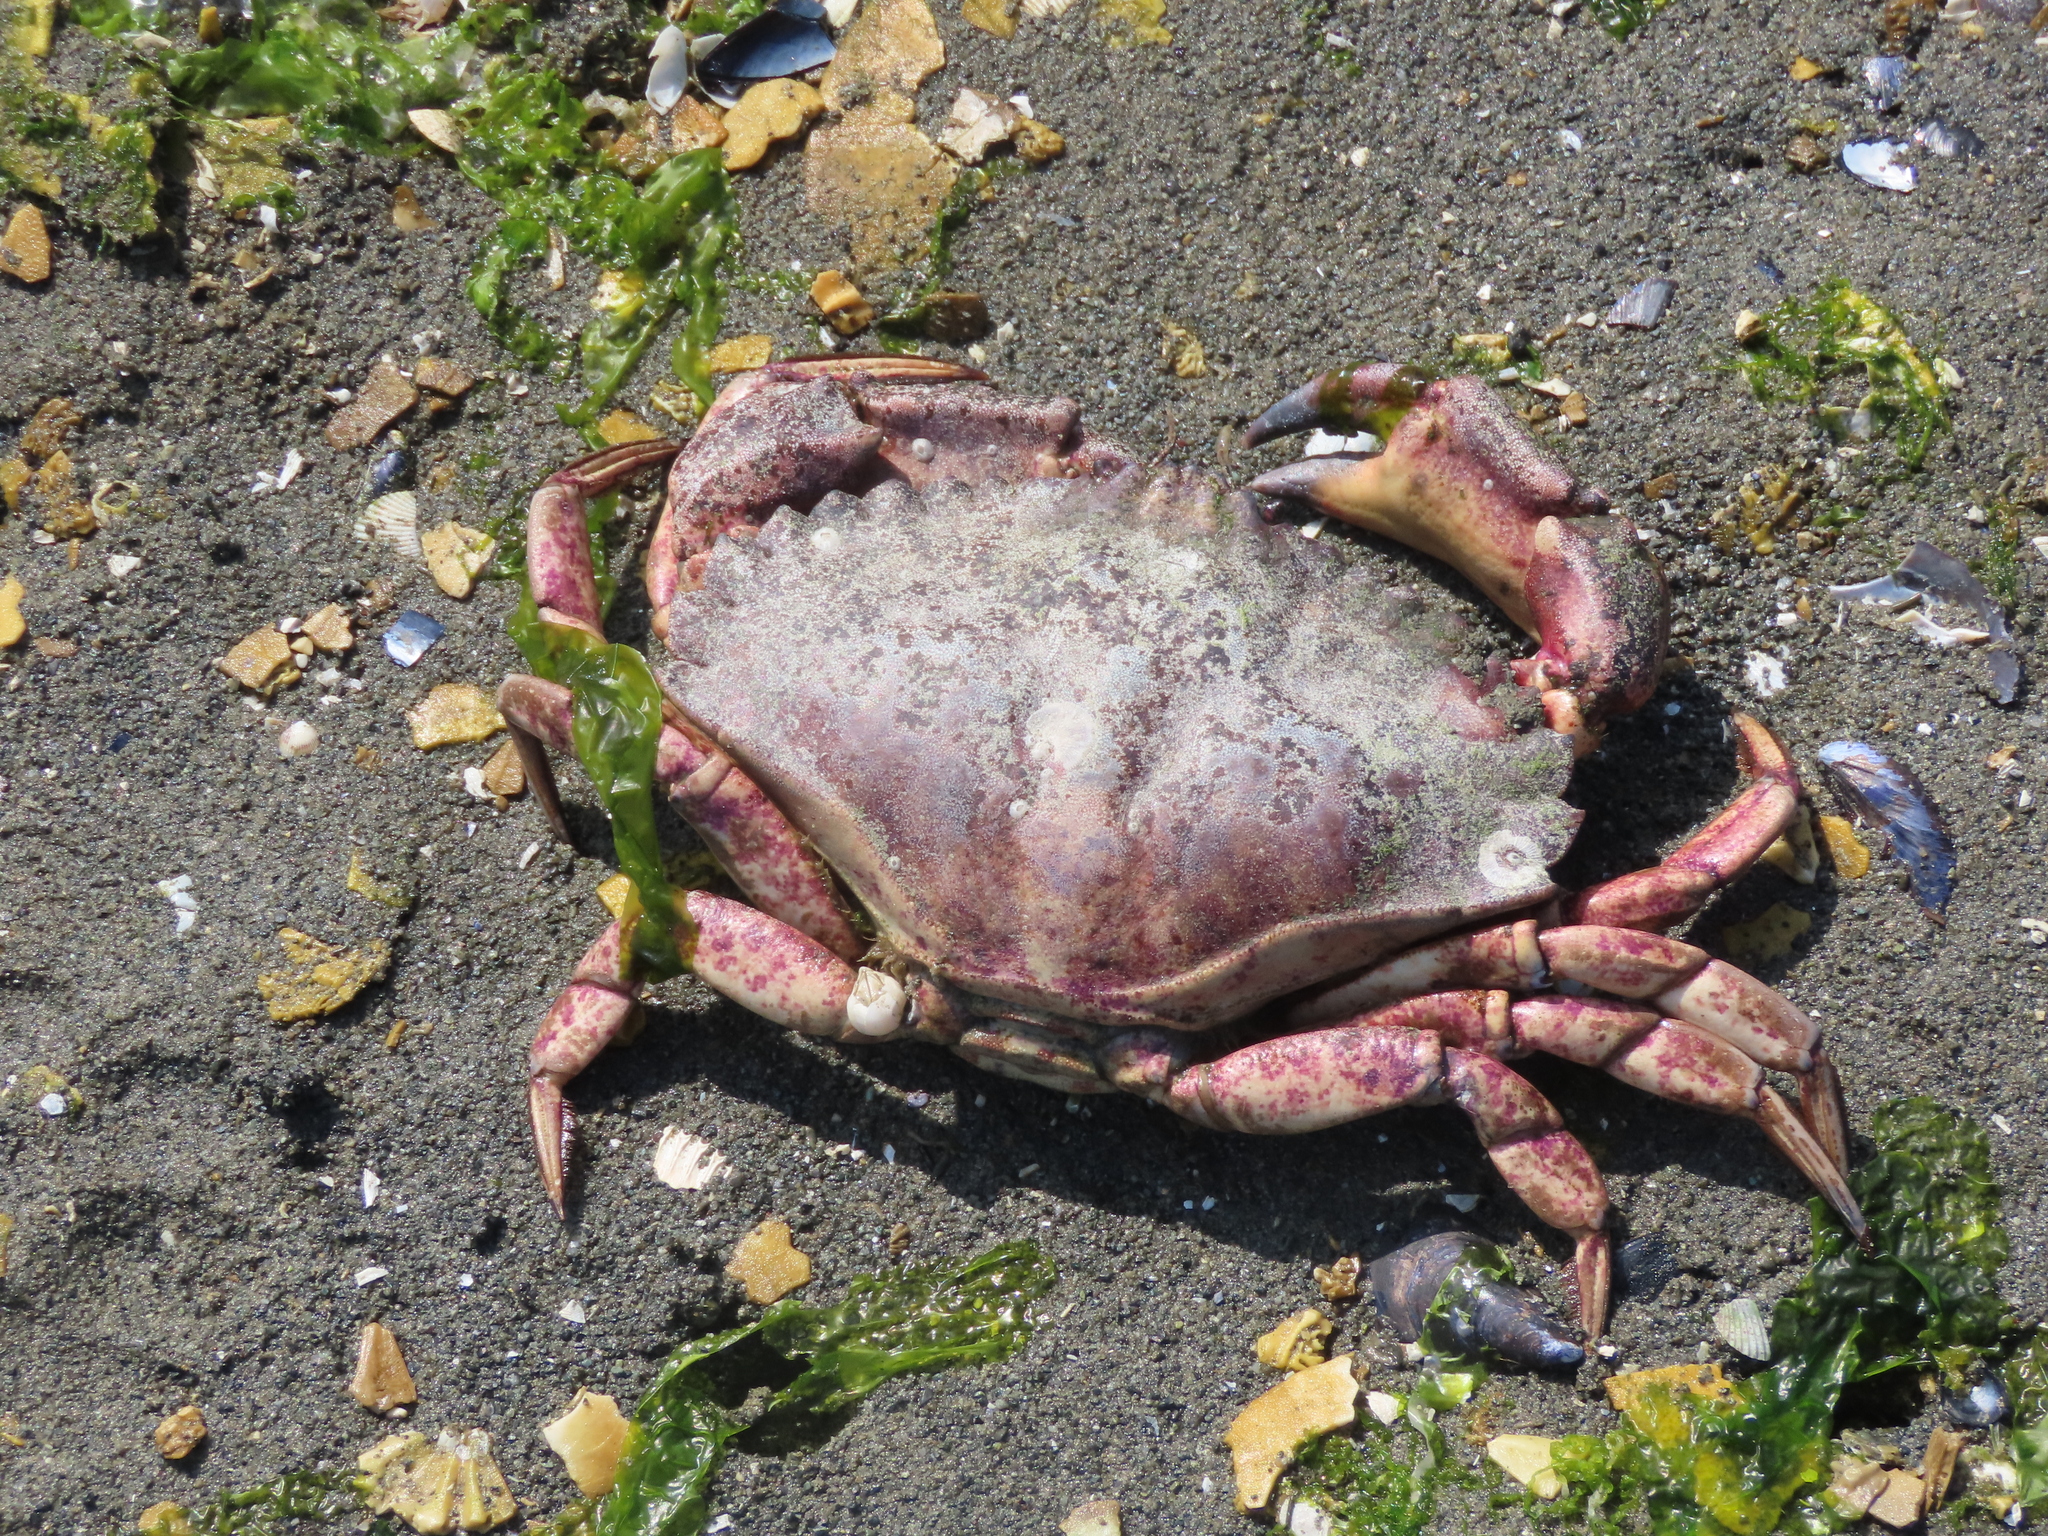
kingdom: Animalia
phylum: Arthropoda
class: Malacostraca
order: Decapoda
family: Cancridae
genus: Cancer
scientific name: Cancer productus
